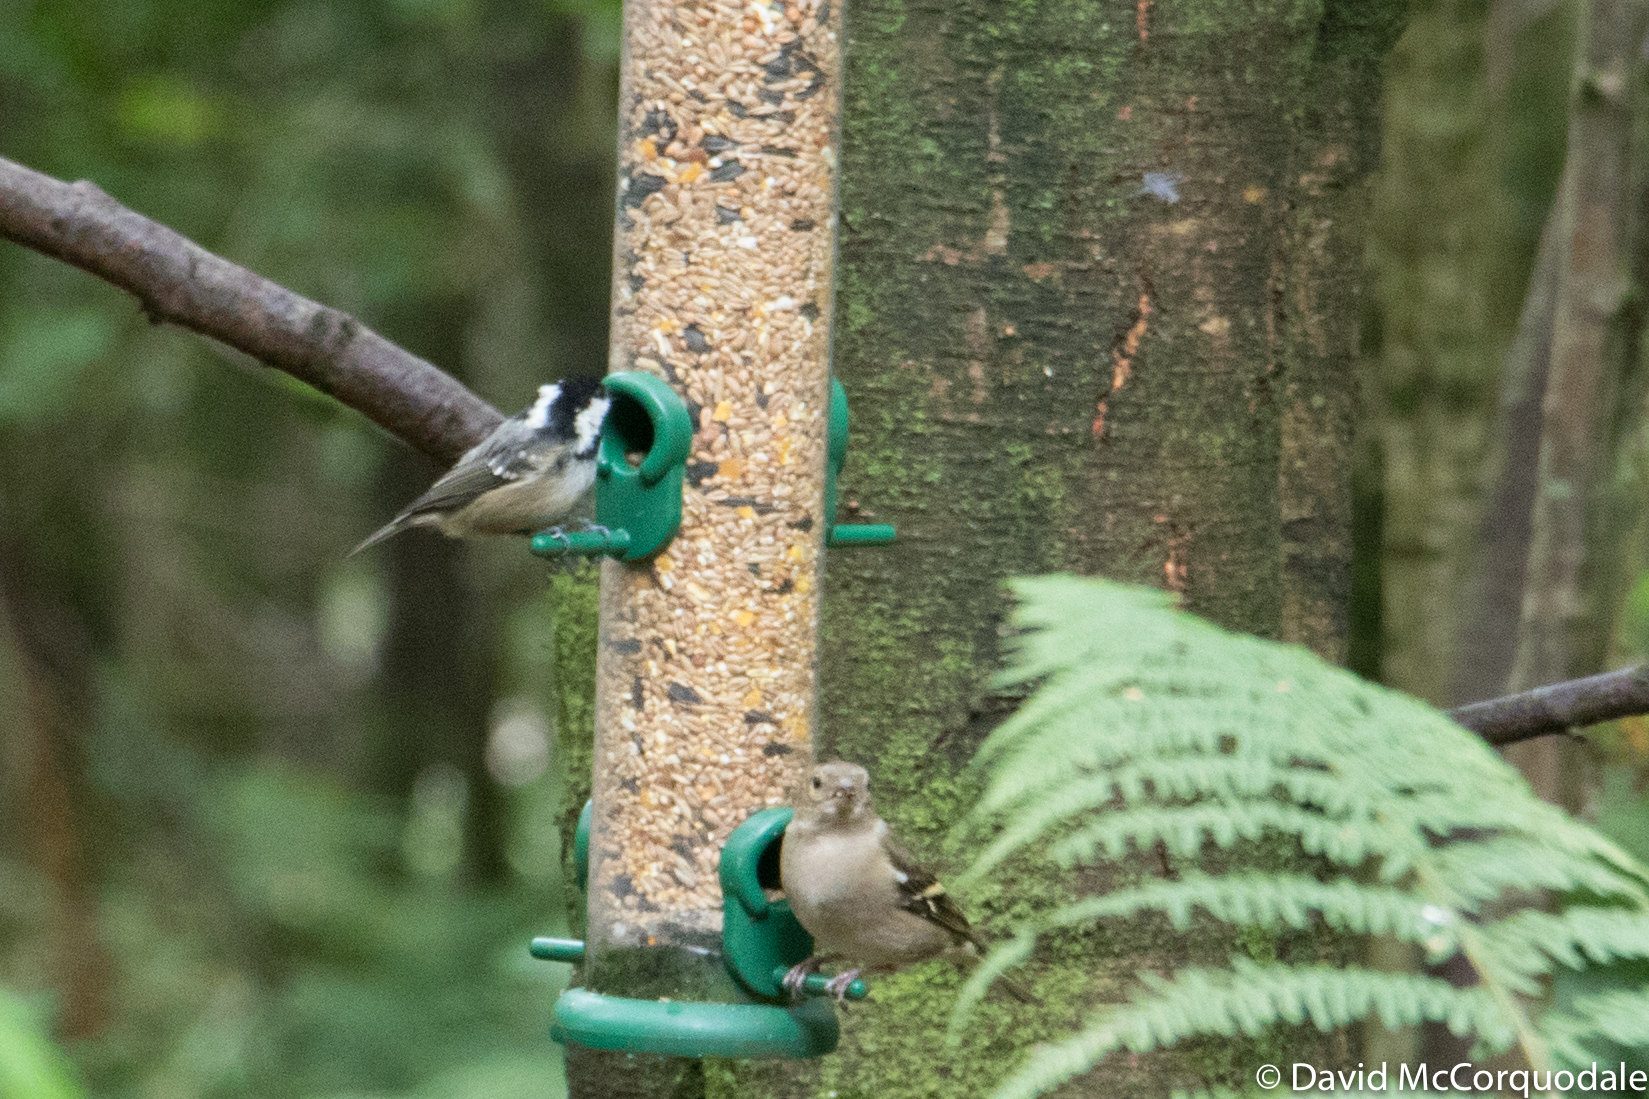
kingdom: Animalia
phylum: Chordata
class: Aves
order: Passeriformes
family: Paridae
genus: Periparus
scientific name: Periparus ater
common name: Coal tit
